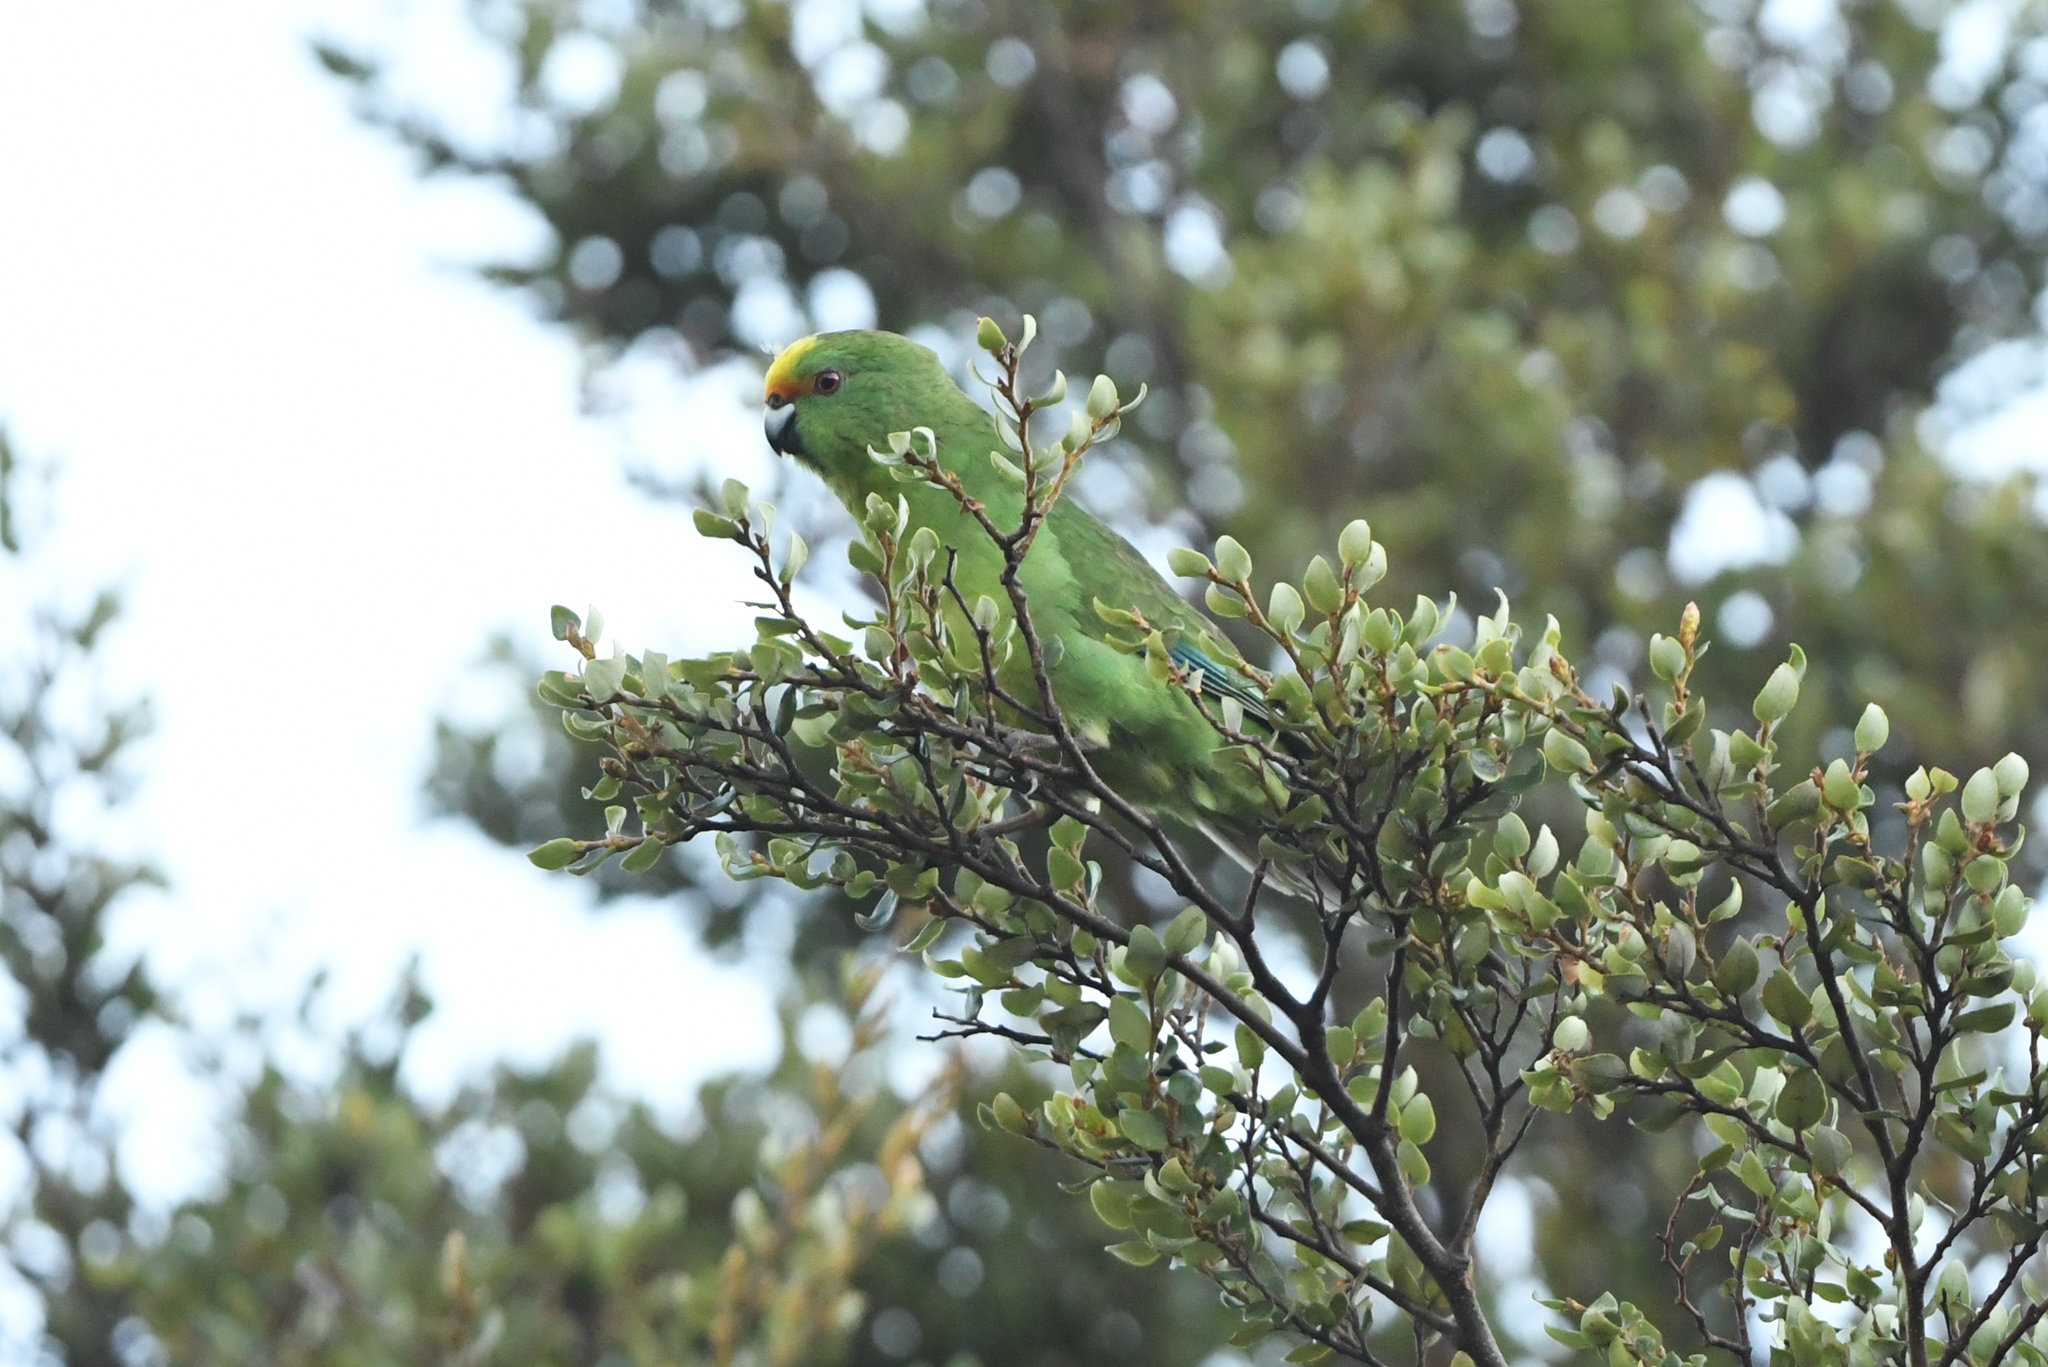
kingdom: Animalia
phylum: Chordata
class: Aves
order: Psittaciformes
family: Psittacidae
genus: Cyanoramphus
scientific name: Cyanoramphus malherbi
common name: Malherbe's parakeet
